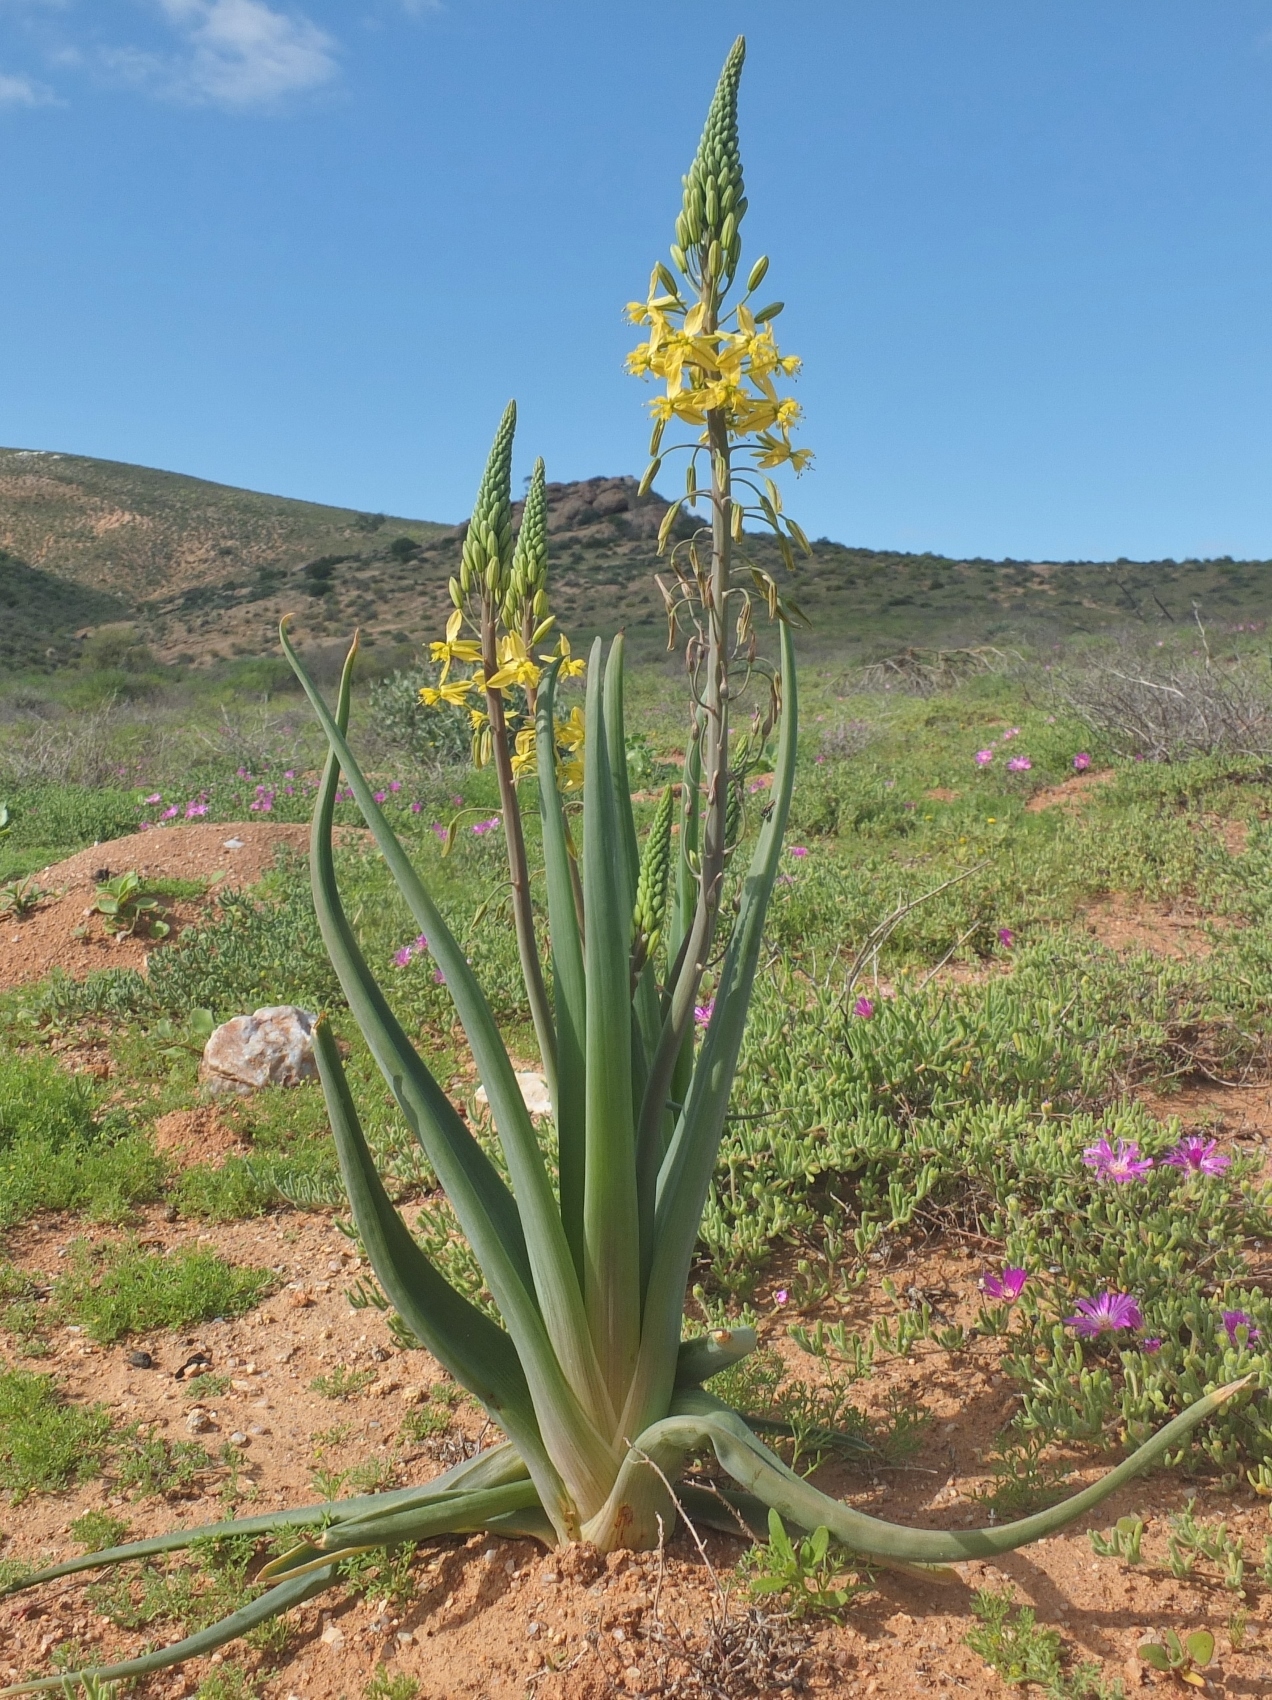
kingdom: Plantae
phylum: Tracheophyta
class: Liliopsida
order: Asparagales
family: Asphodelaceae
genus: Bulbine
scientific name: Bulbine praemorsa
